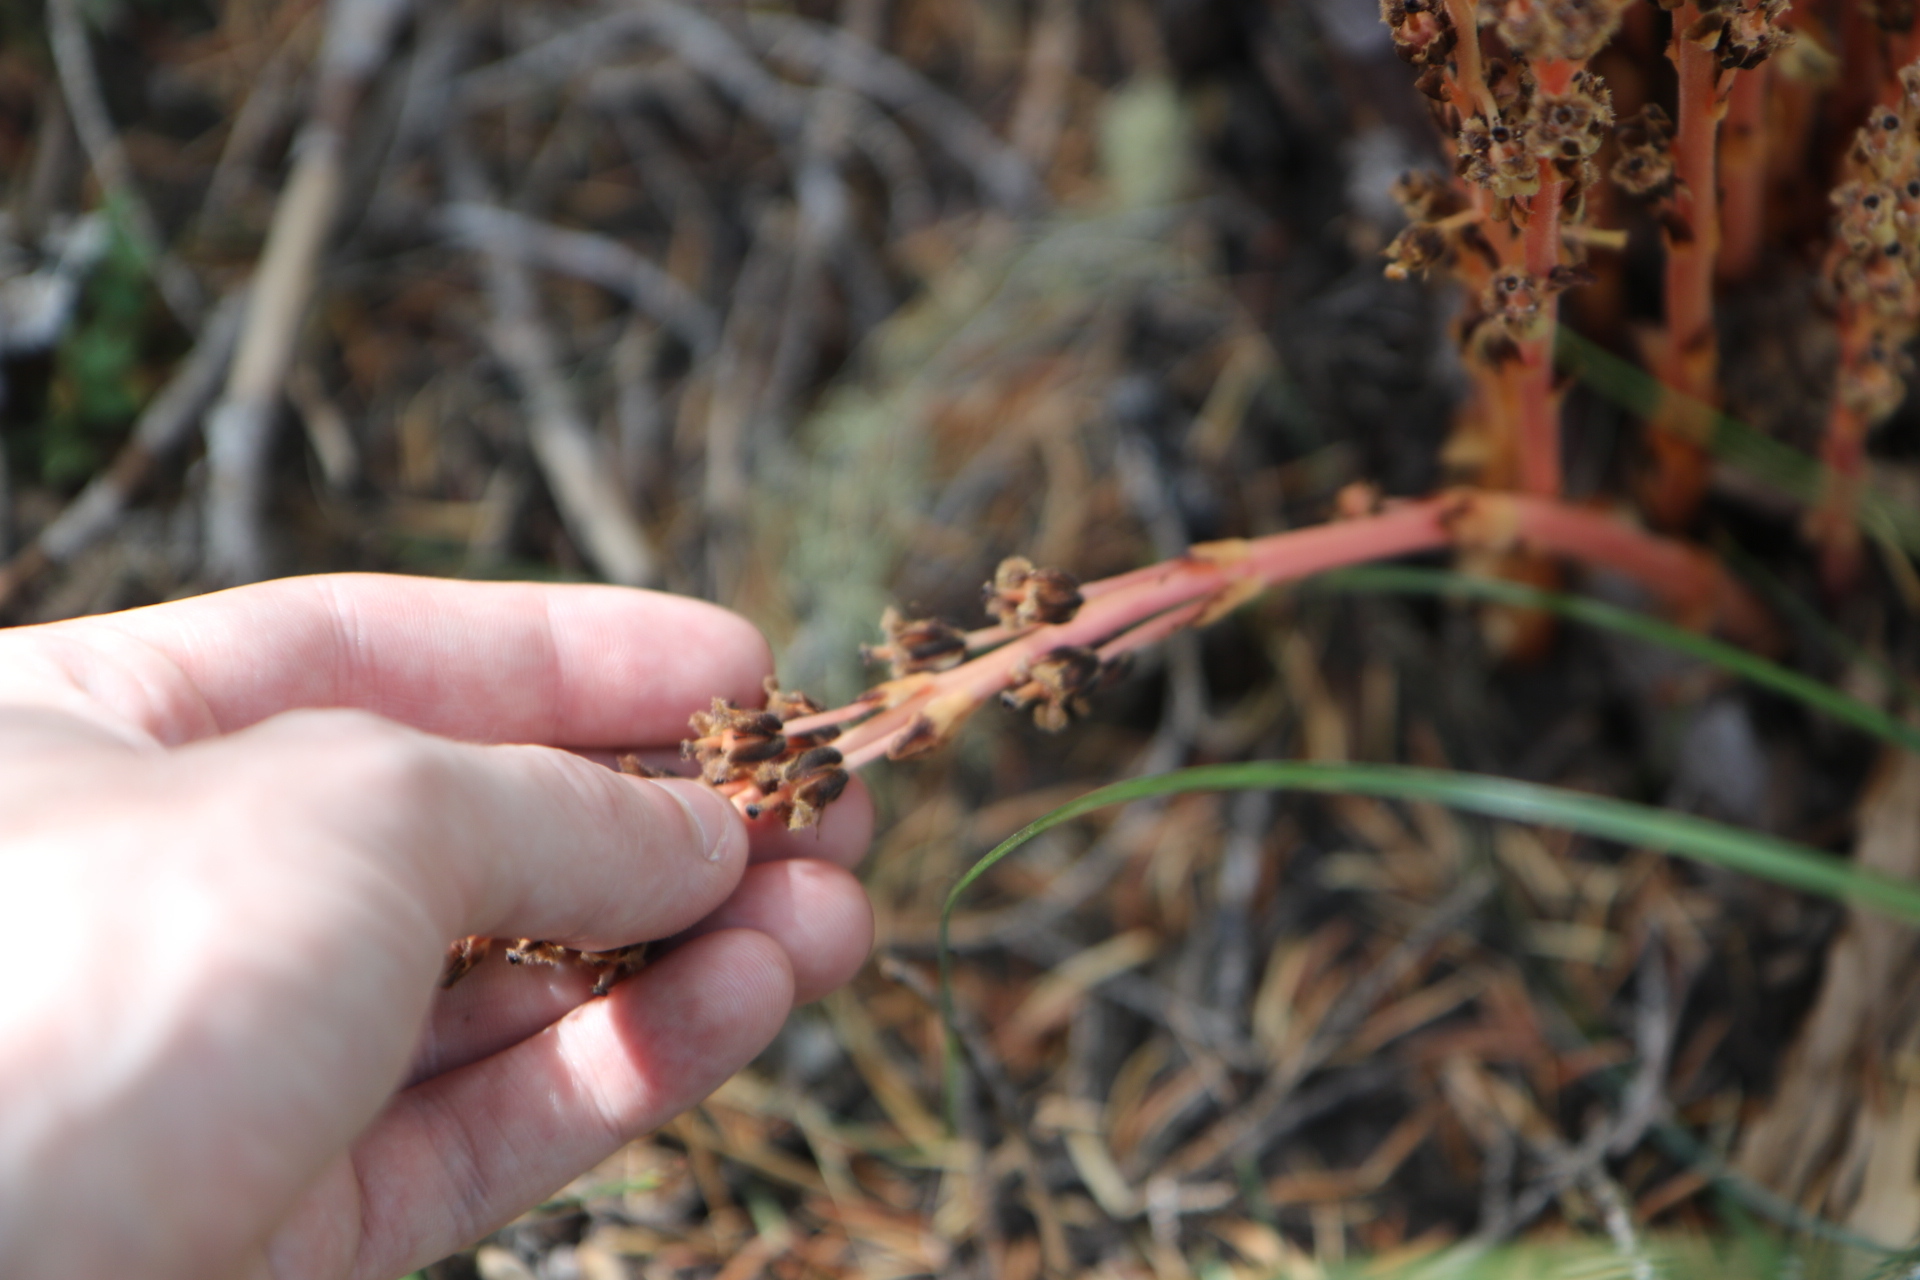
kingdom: Plantae
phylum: Tracheophyta
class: Magnoliopsida
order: Ericales
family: Ericaceae
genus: Hypopitys
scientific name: Hypopitys monotropa
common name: Yellow bird's-nest
